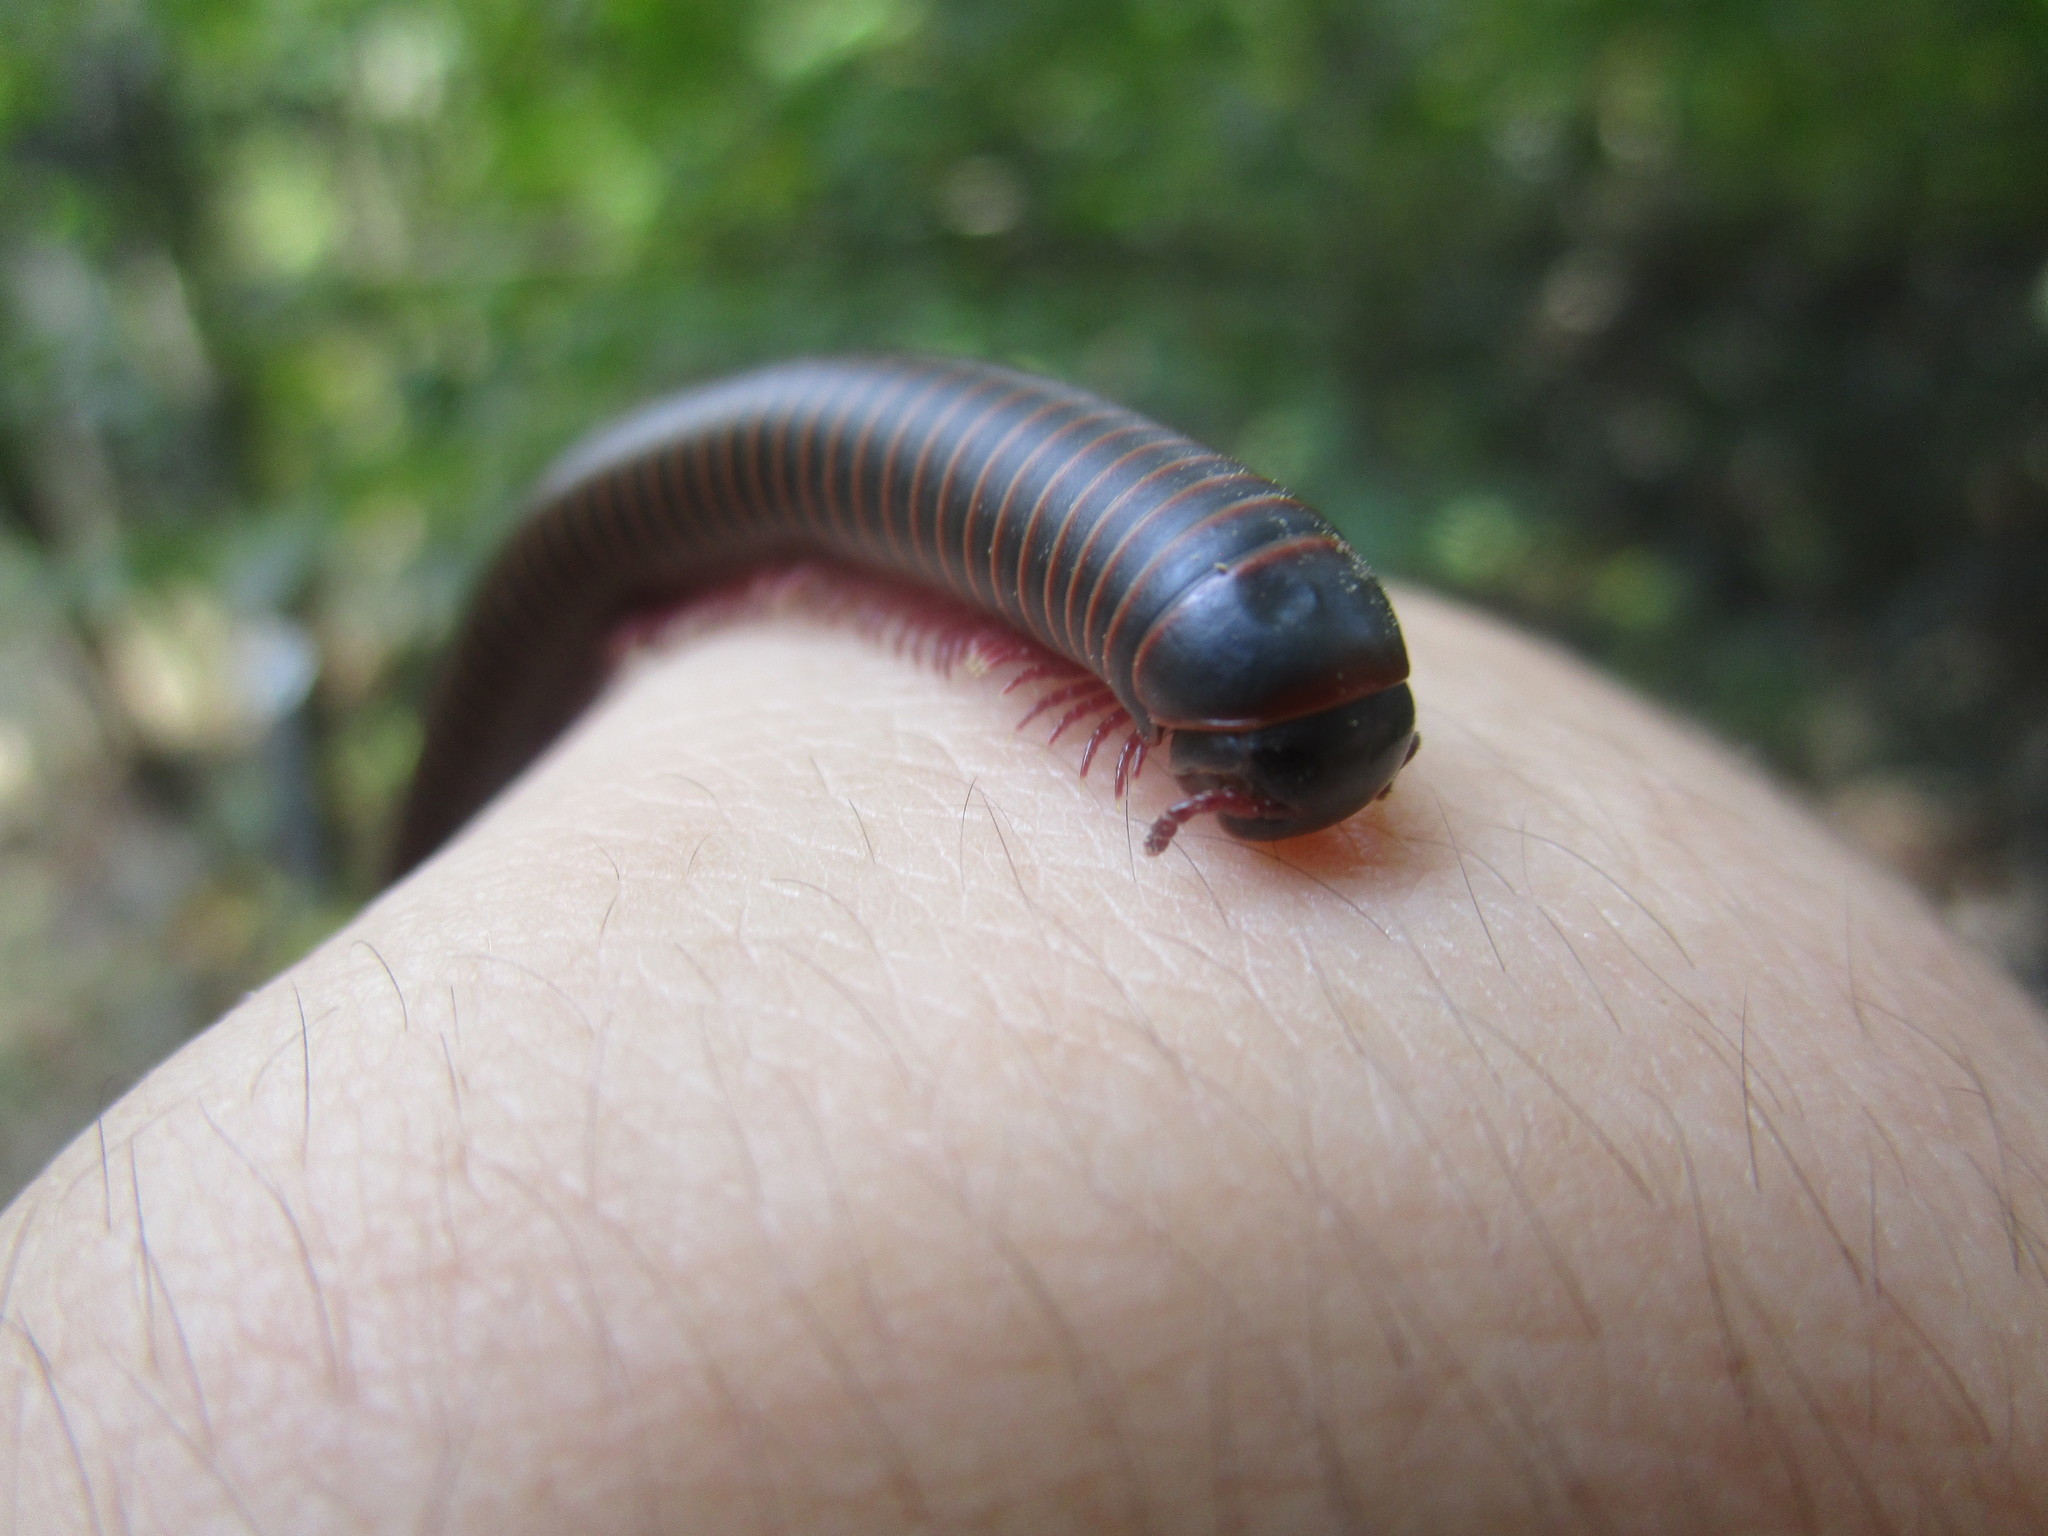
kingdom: Animalia
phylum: Arthropoda
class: Diplopoda
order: Spirobolida
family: Spirobolidae
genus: Narceus
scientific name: Narceus
